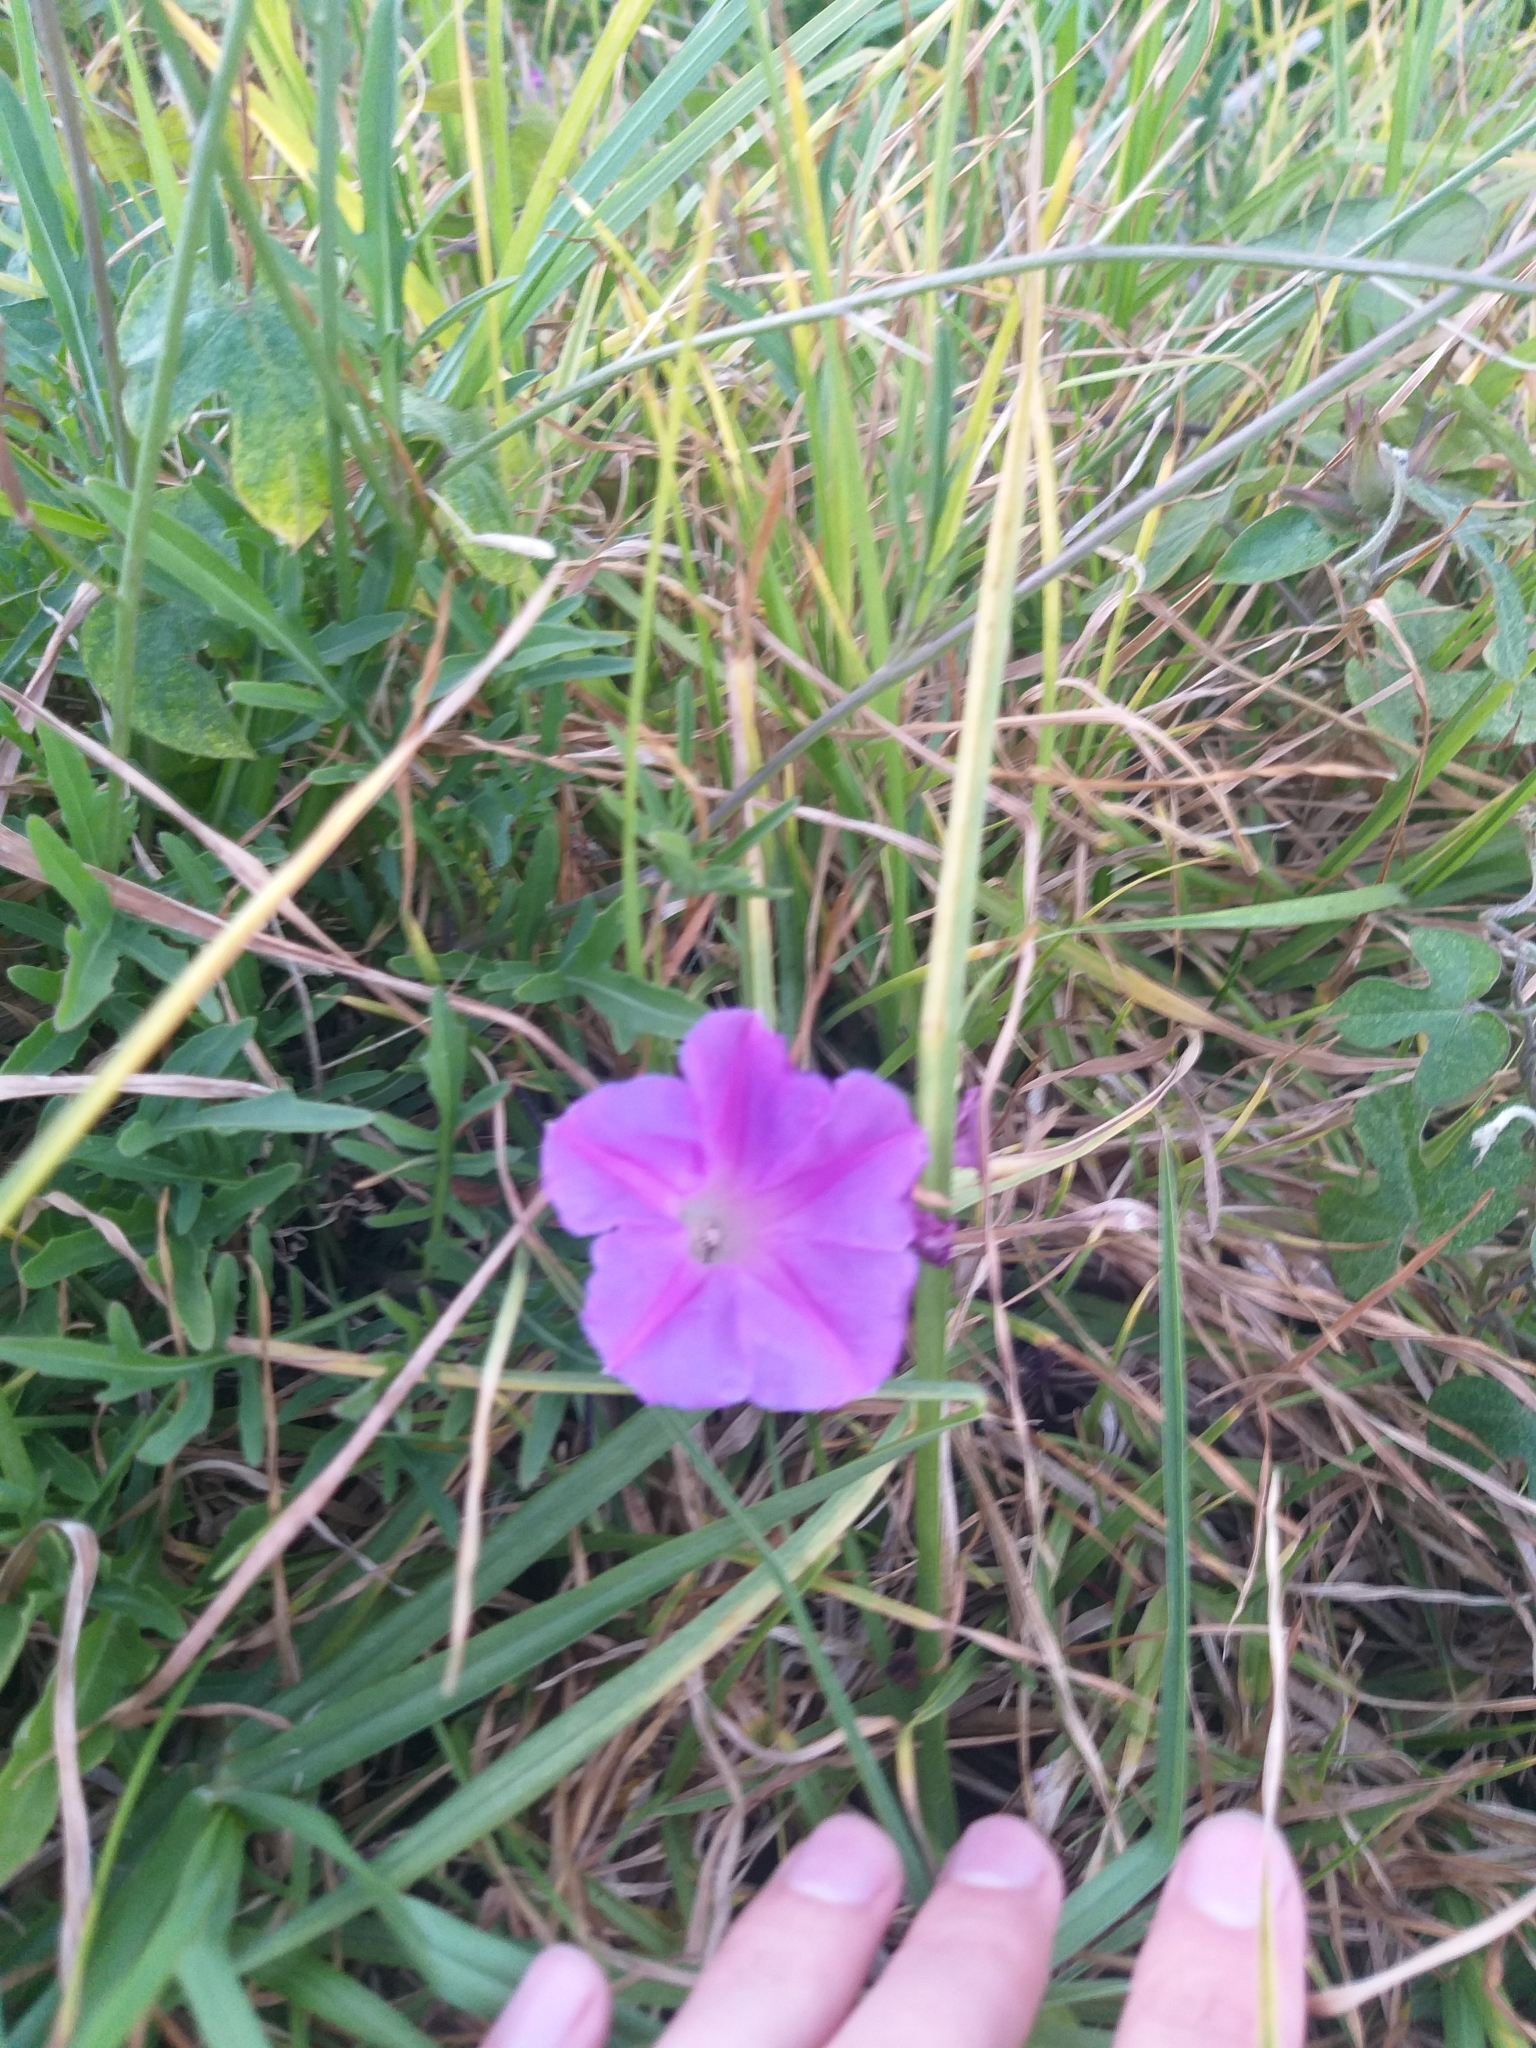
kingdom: Plantae
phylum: Tracheophyta
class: Magnoliopsida
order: Solanales
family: Convolvulaceae
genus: Ipomoea
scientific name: Ipomoea indica
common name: Blue dawnflower
